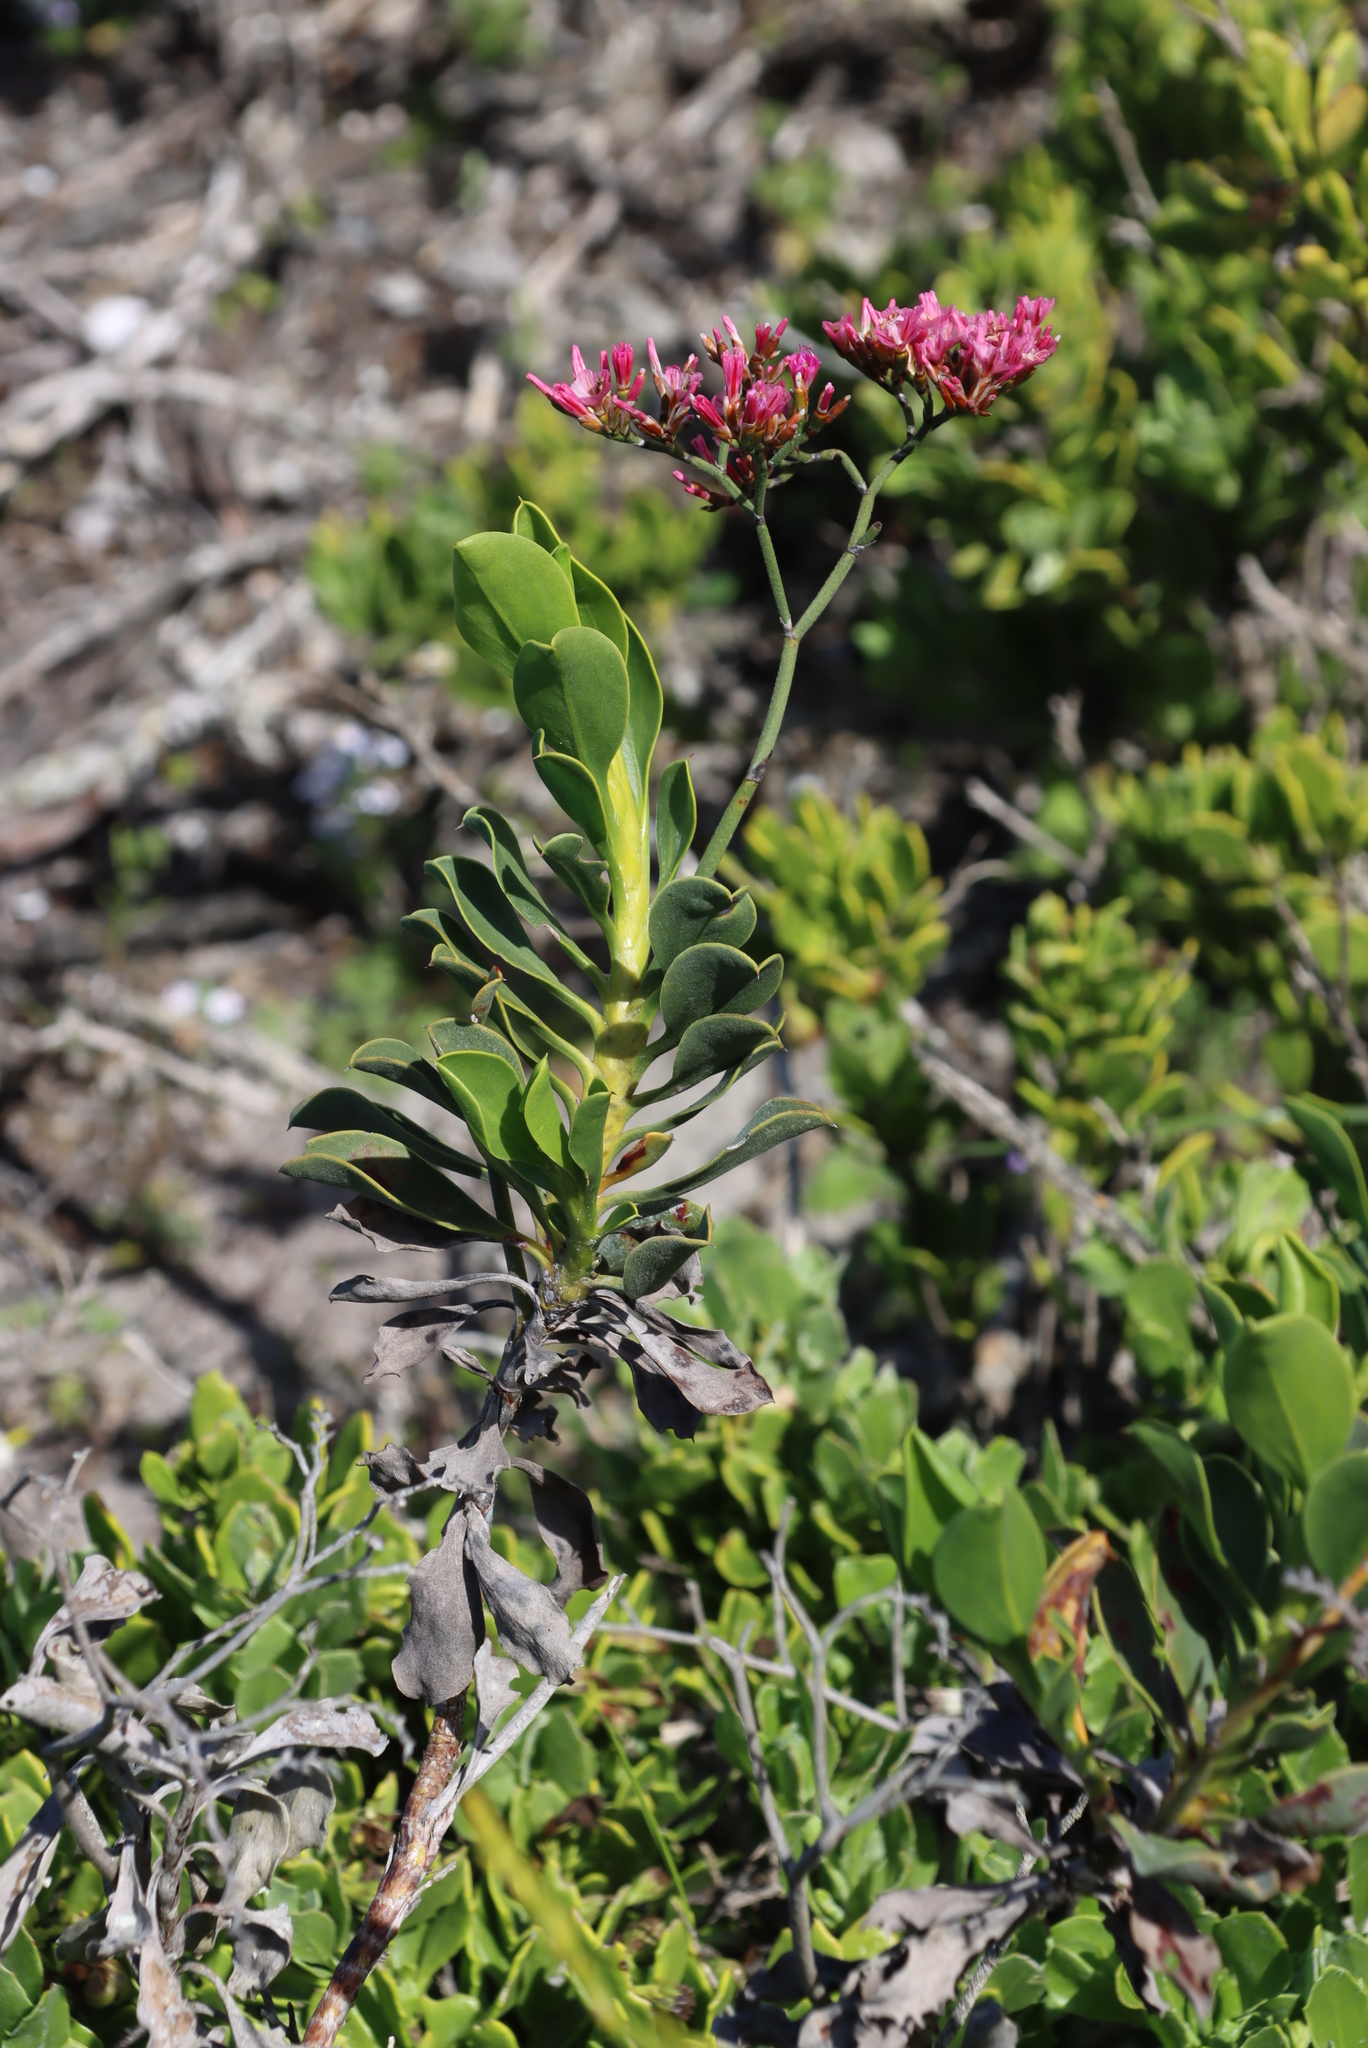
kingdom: Plantae
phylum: Tracheophyta
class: Magnoliopsida
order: Caryophyllales
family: Plumbaginaceae
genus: Limonium
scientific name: Limonium peregrinum
